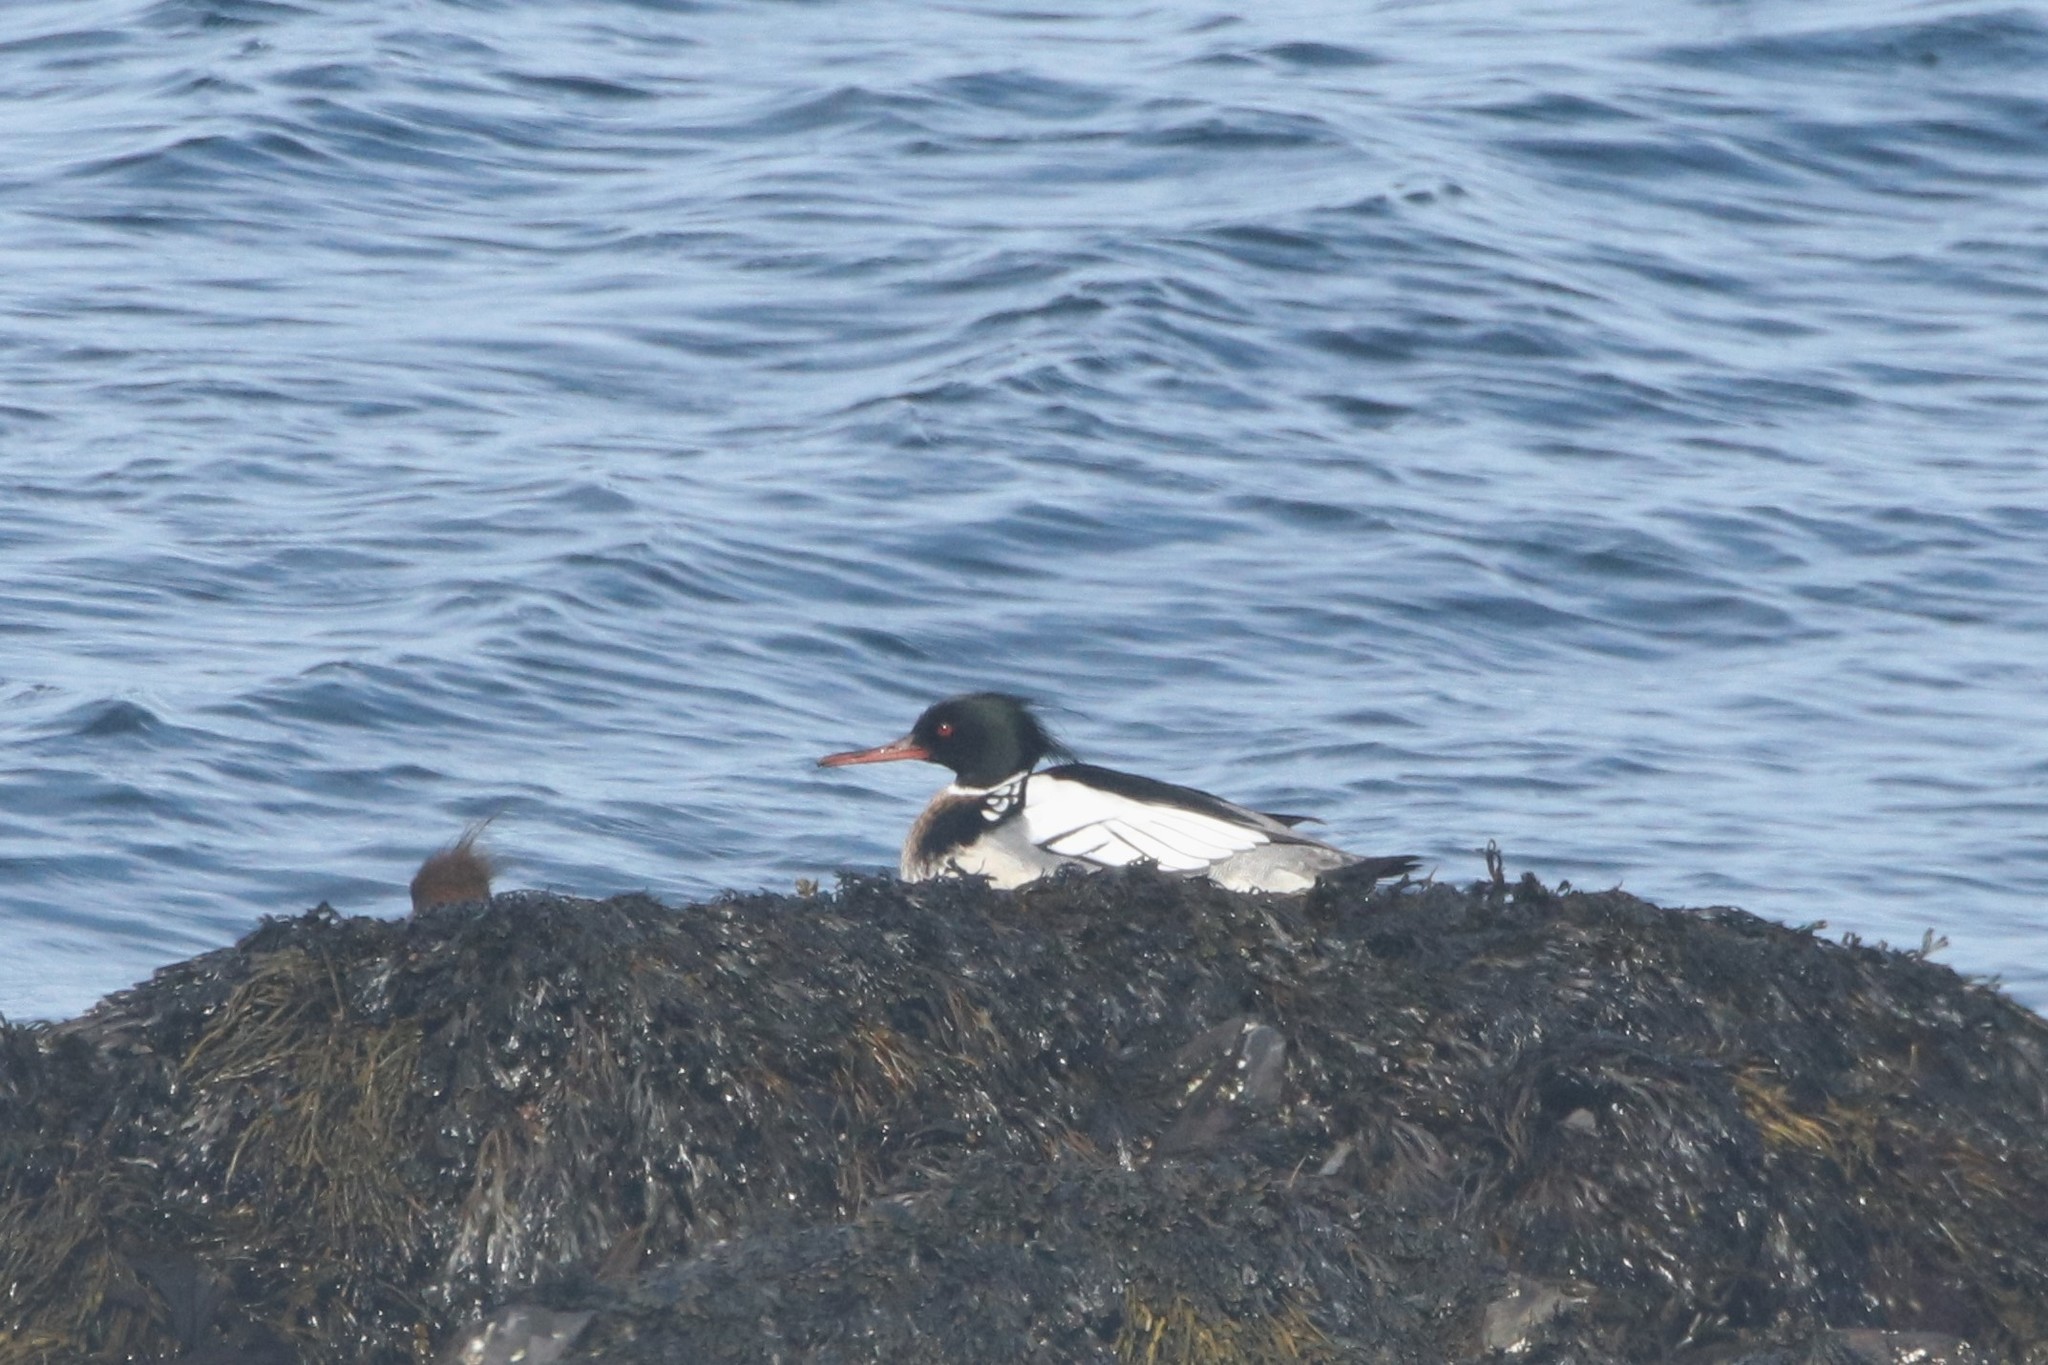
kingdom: Animalia
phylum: Chordata
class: Aves
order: Anseriformes
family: Anatidae
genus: Mergus
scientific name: Mergus serrator
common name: Red-breasted merganser
